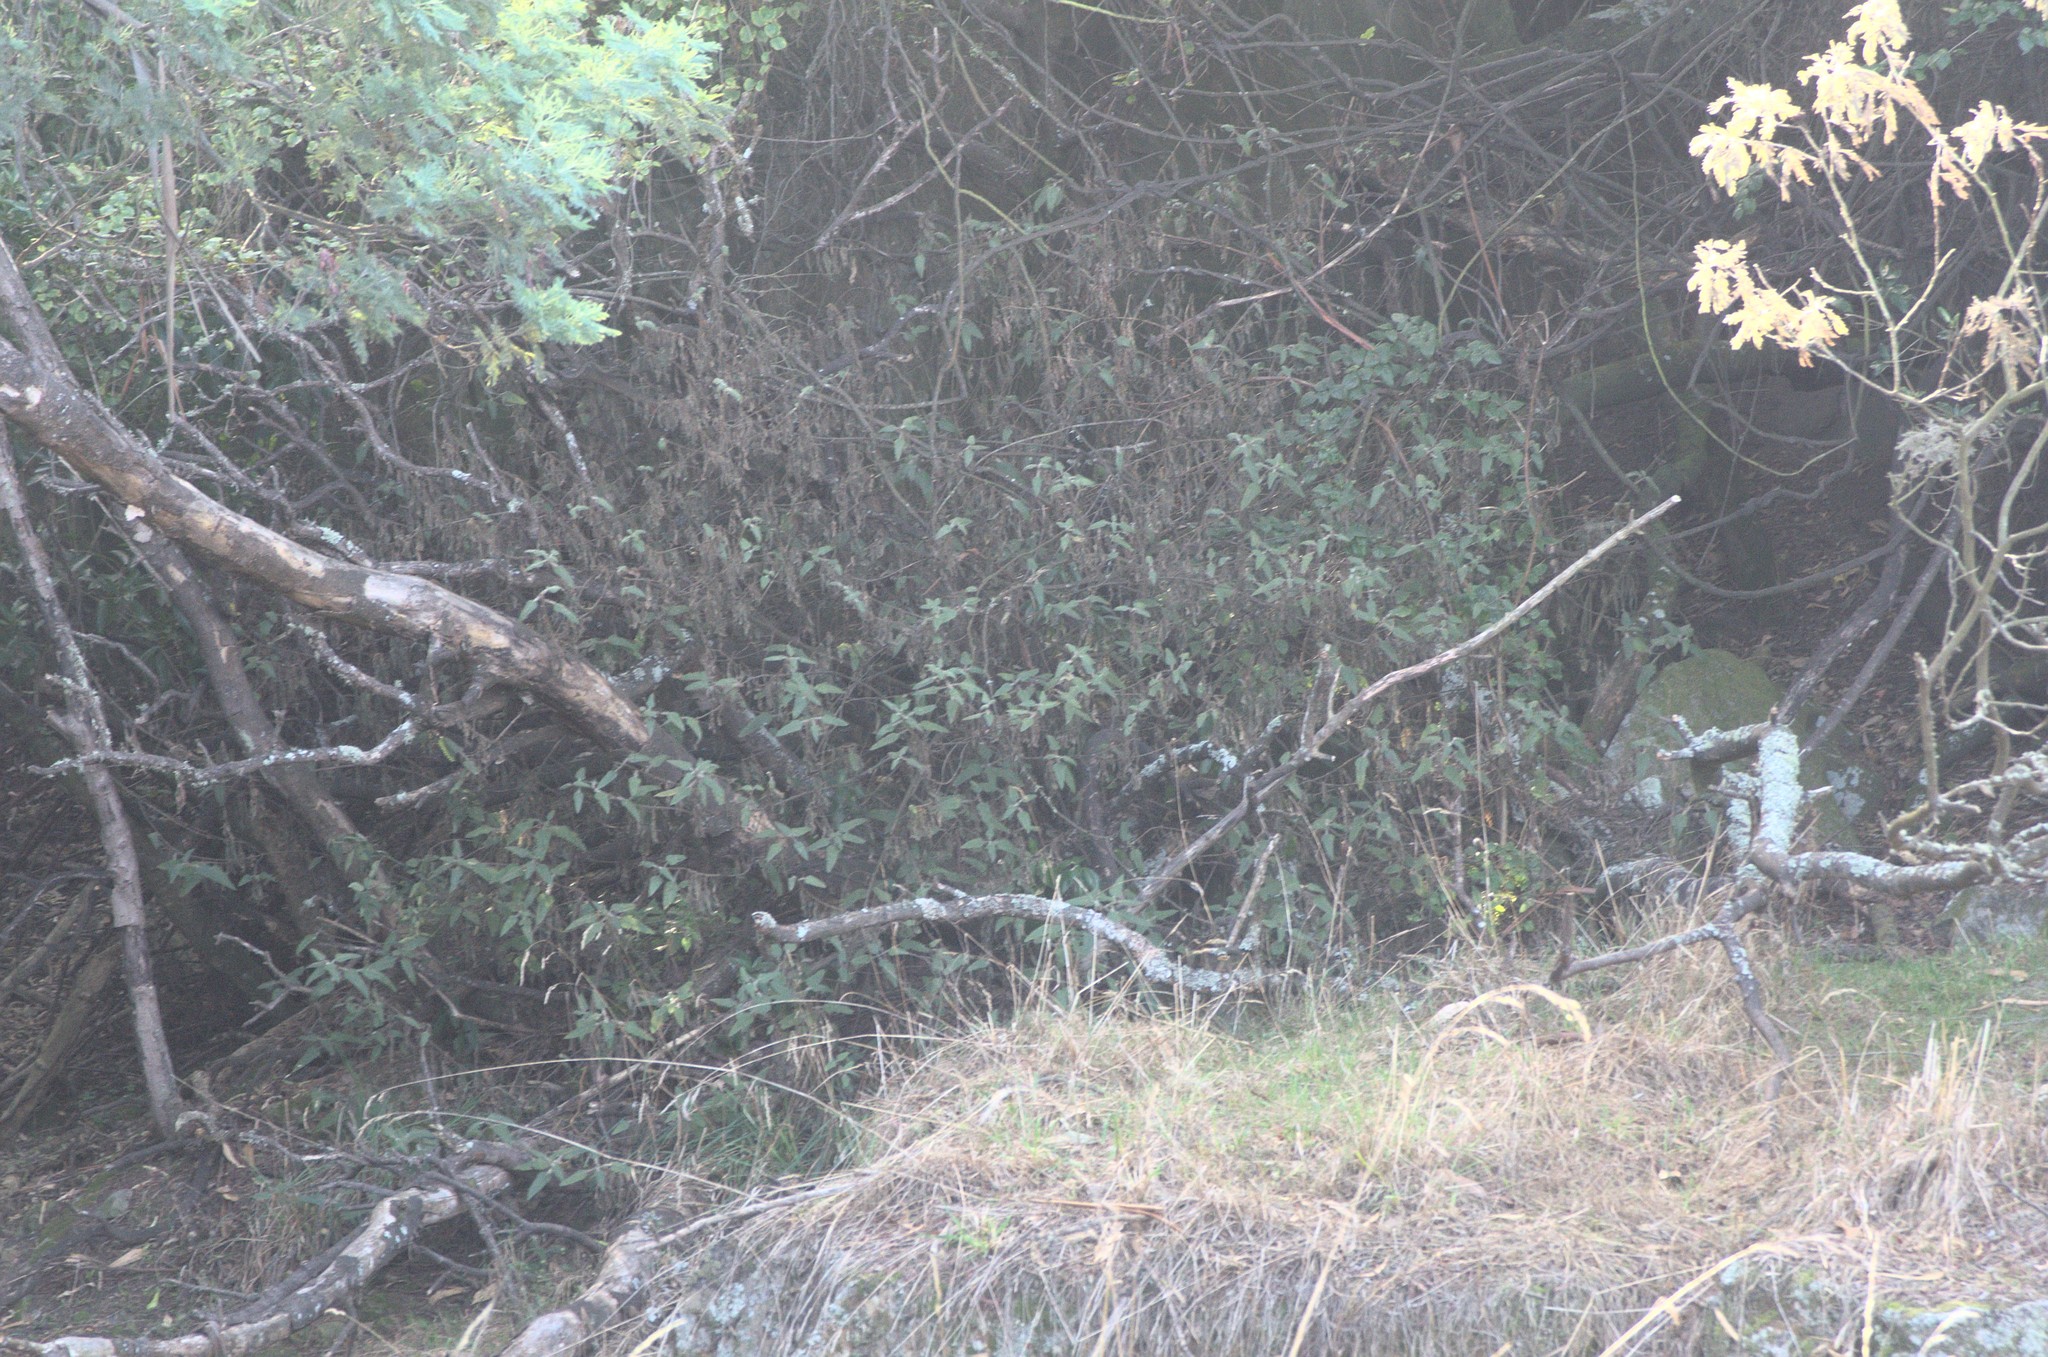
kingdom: Plantae
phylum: Tracheophyta
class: Magnoliopsida
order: Rosales
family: Urticaceae
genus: Urtica
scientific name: Urtica ferox
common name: Tree nettle
